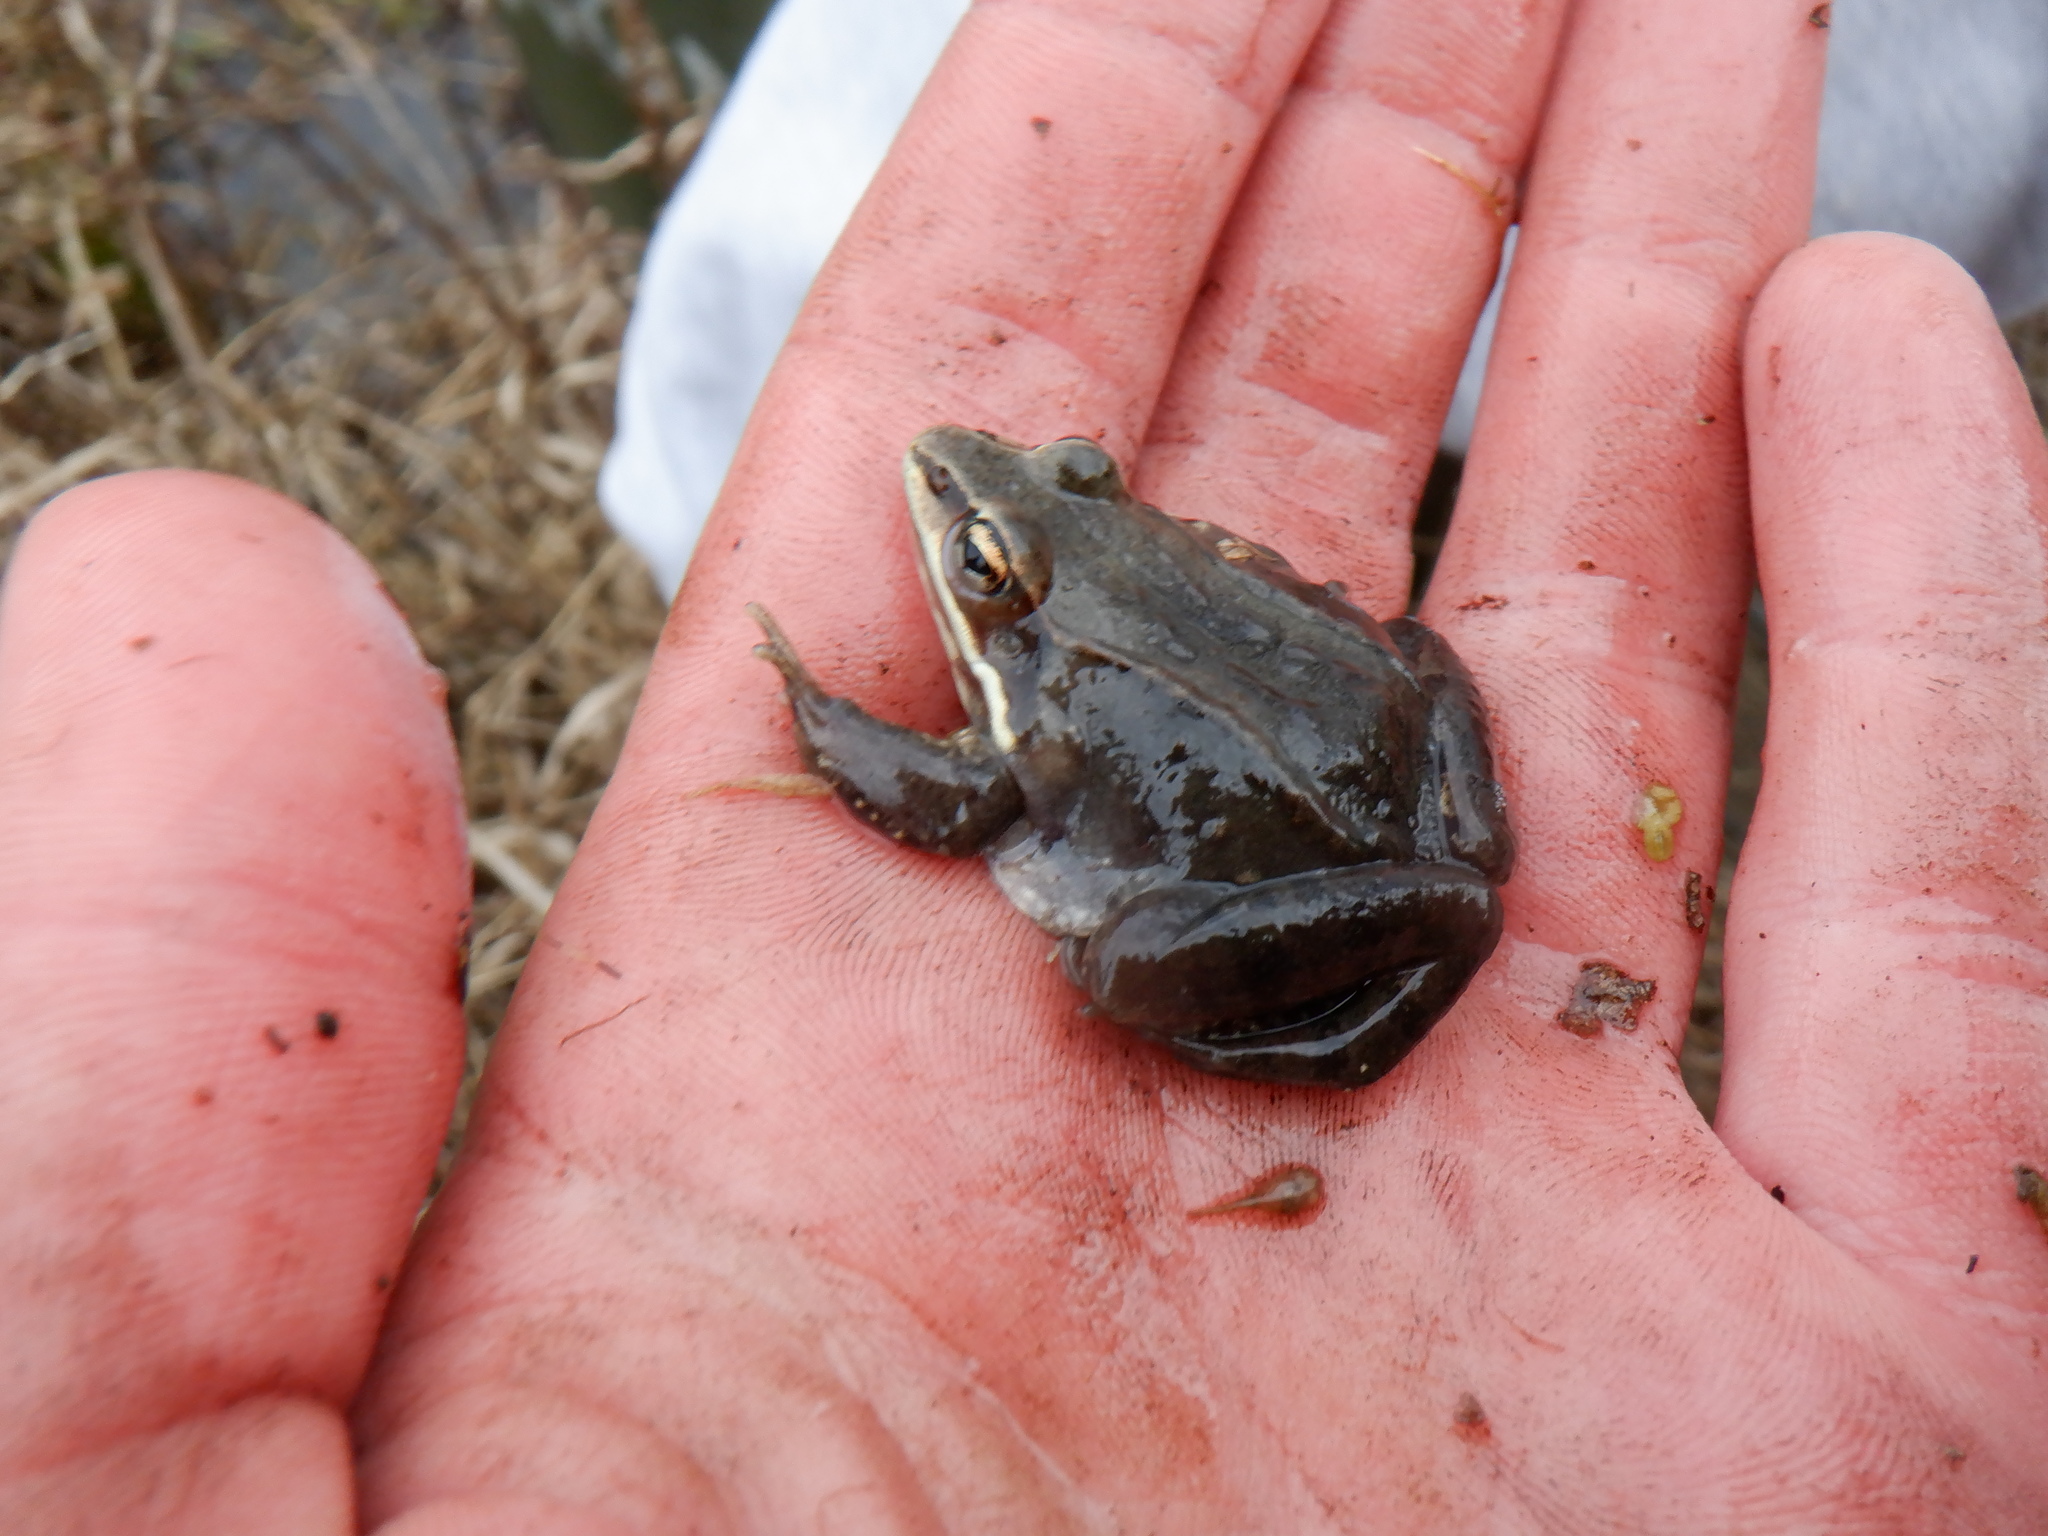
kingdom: Animalia
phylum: Chordata
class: Amphibia
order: Anura
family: Ranidae
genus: Lithobates
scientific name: Lithobates sylvaticus
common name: Wood frog
